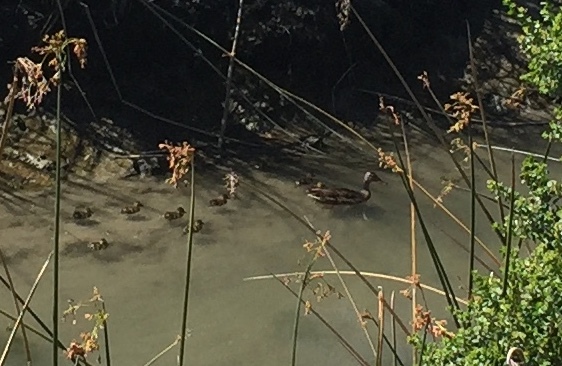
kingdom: Animalia
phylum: Chordata
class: Aves
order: Anseriformes
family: Anatidae
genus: Anas
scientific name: Anas platyrhynchos
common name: Mallard
